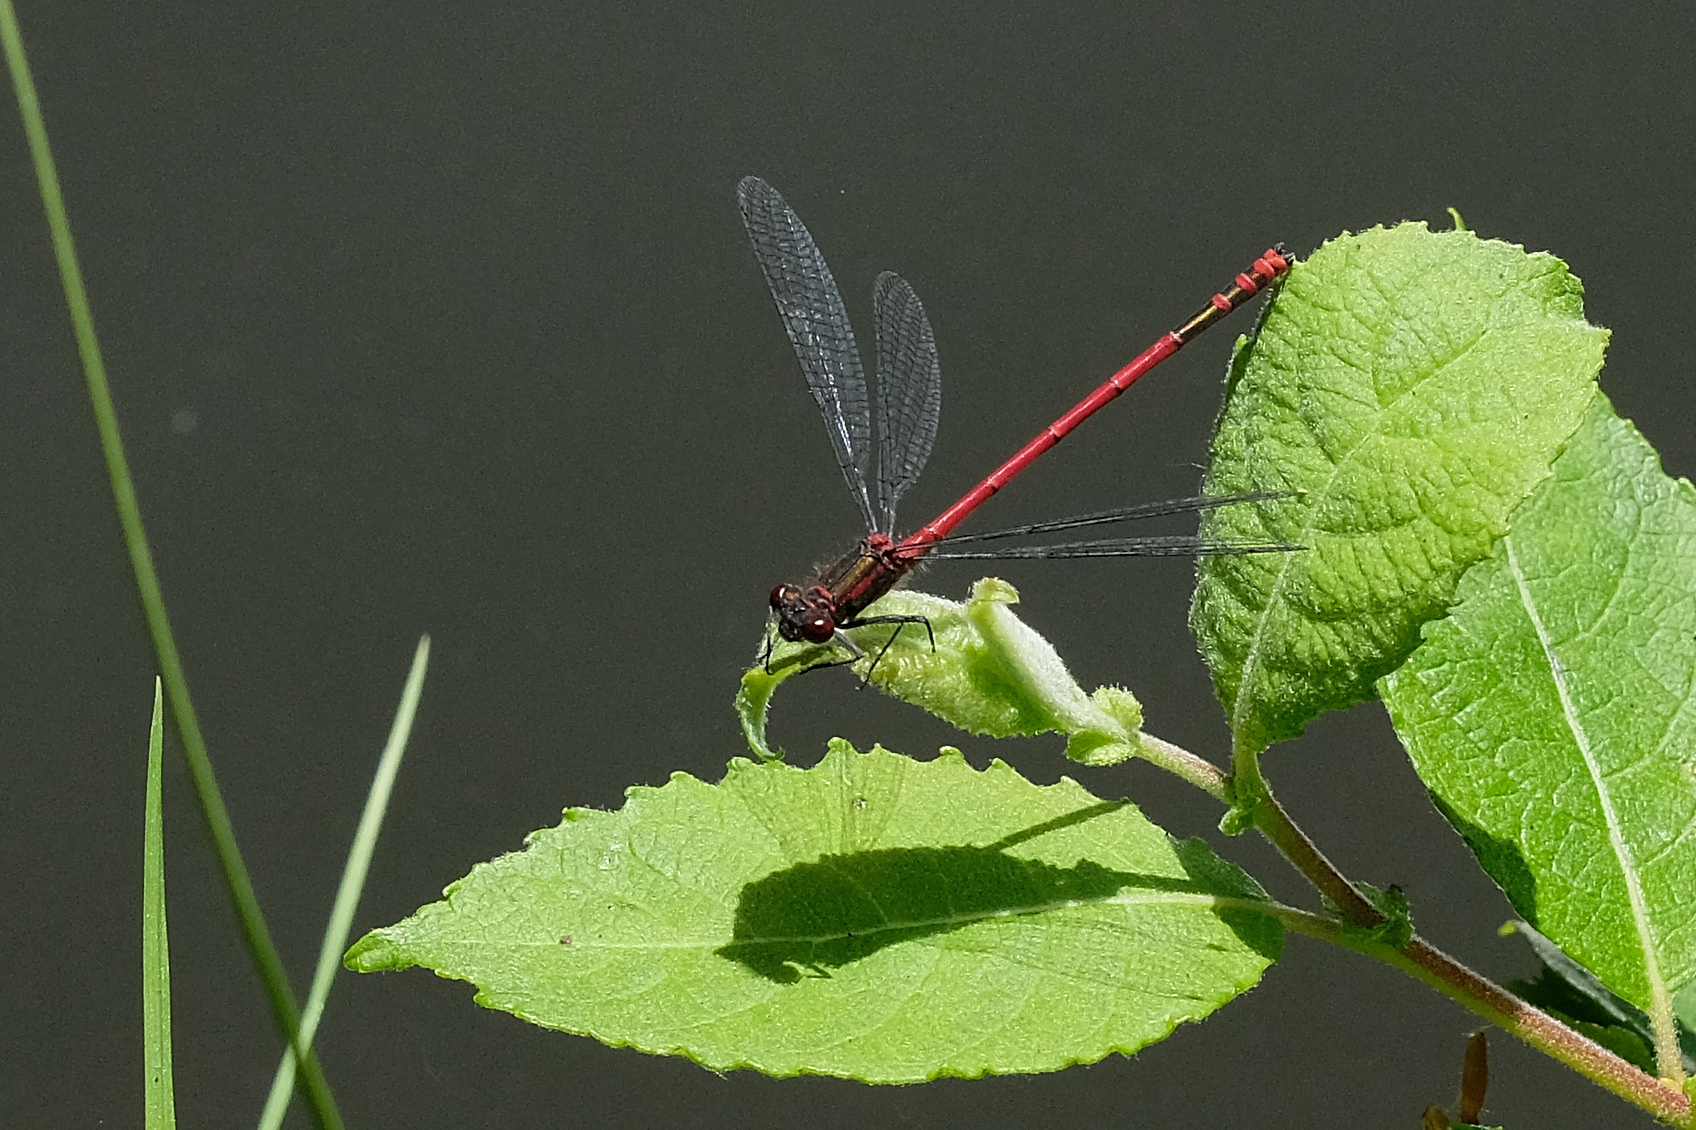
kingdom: Animalia
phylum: Arthropoda
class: Insecta
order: Odonata
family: Coenagrionidae
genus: Pyrrhosoma
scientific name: Pyrrhosoma nymphula
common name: Large red damsel
